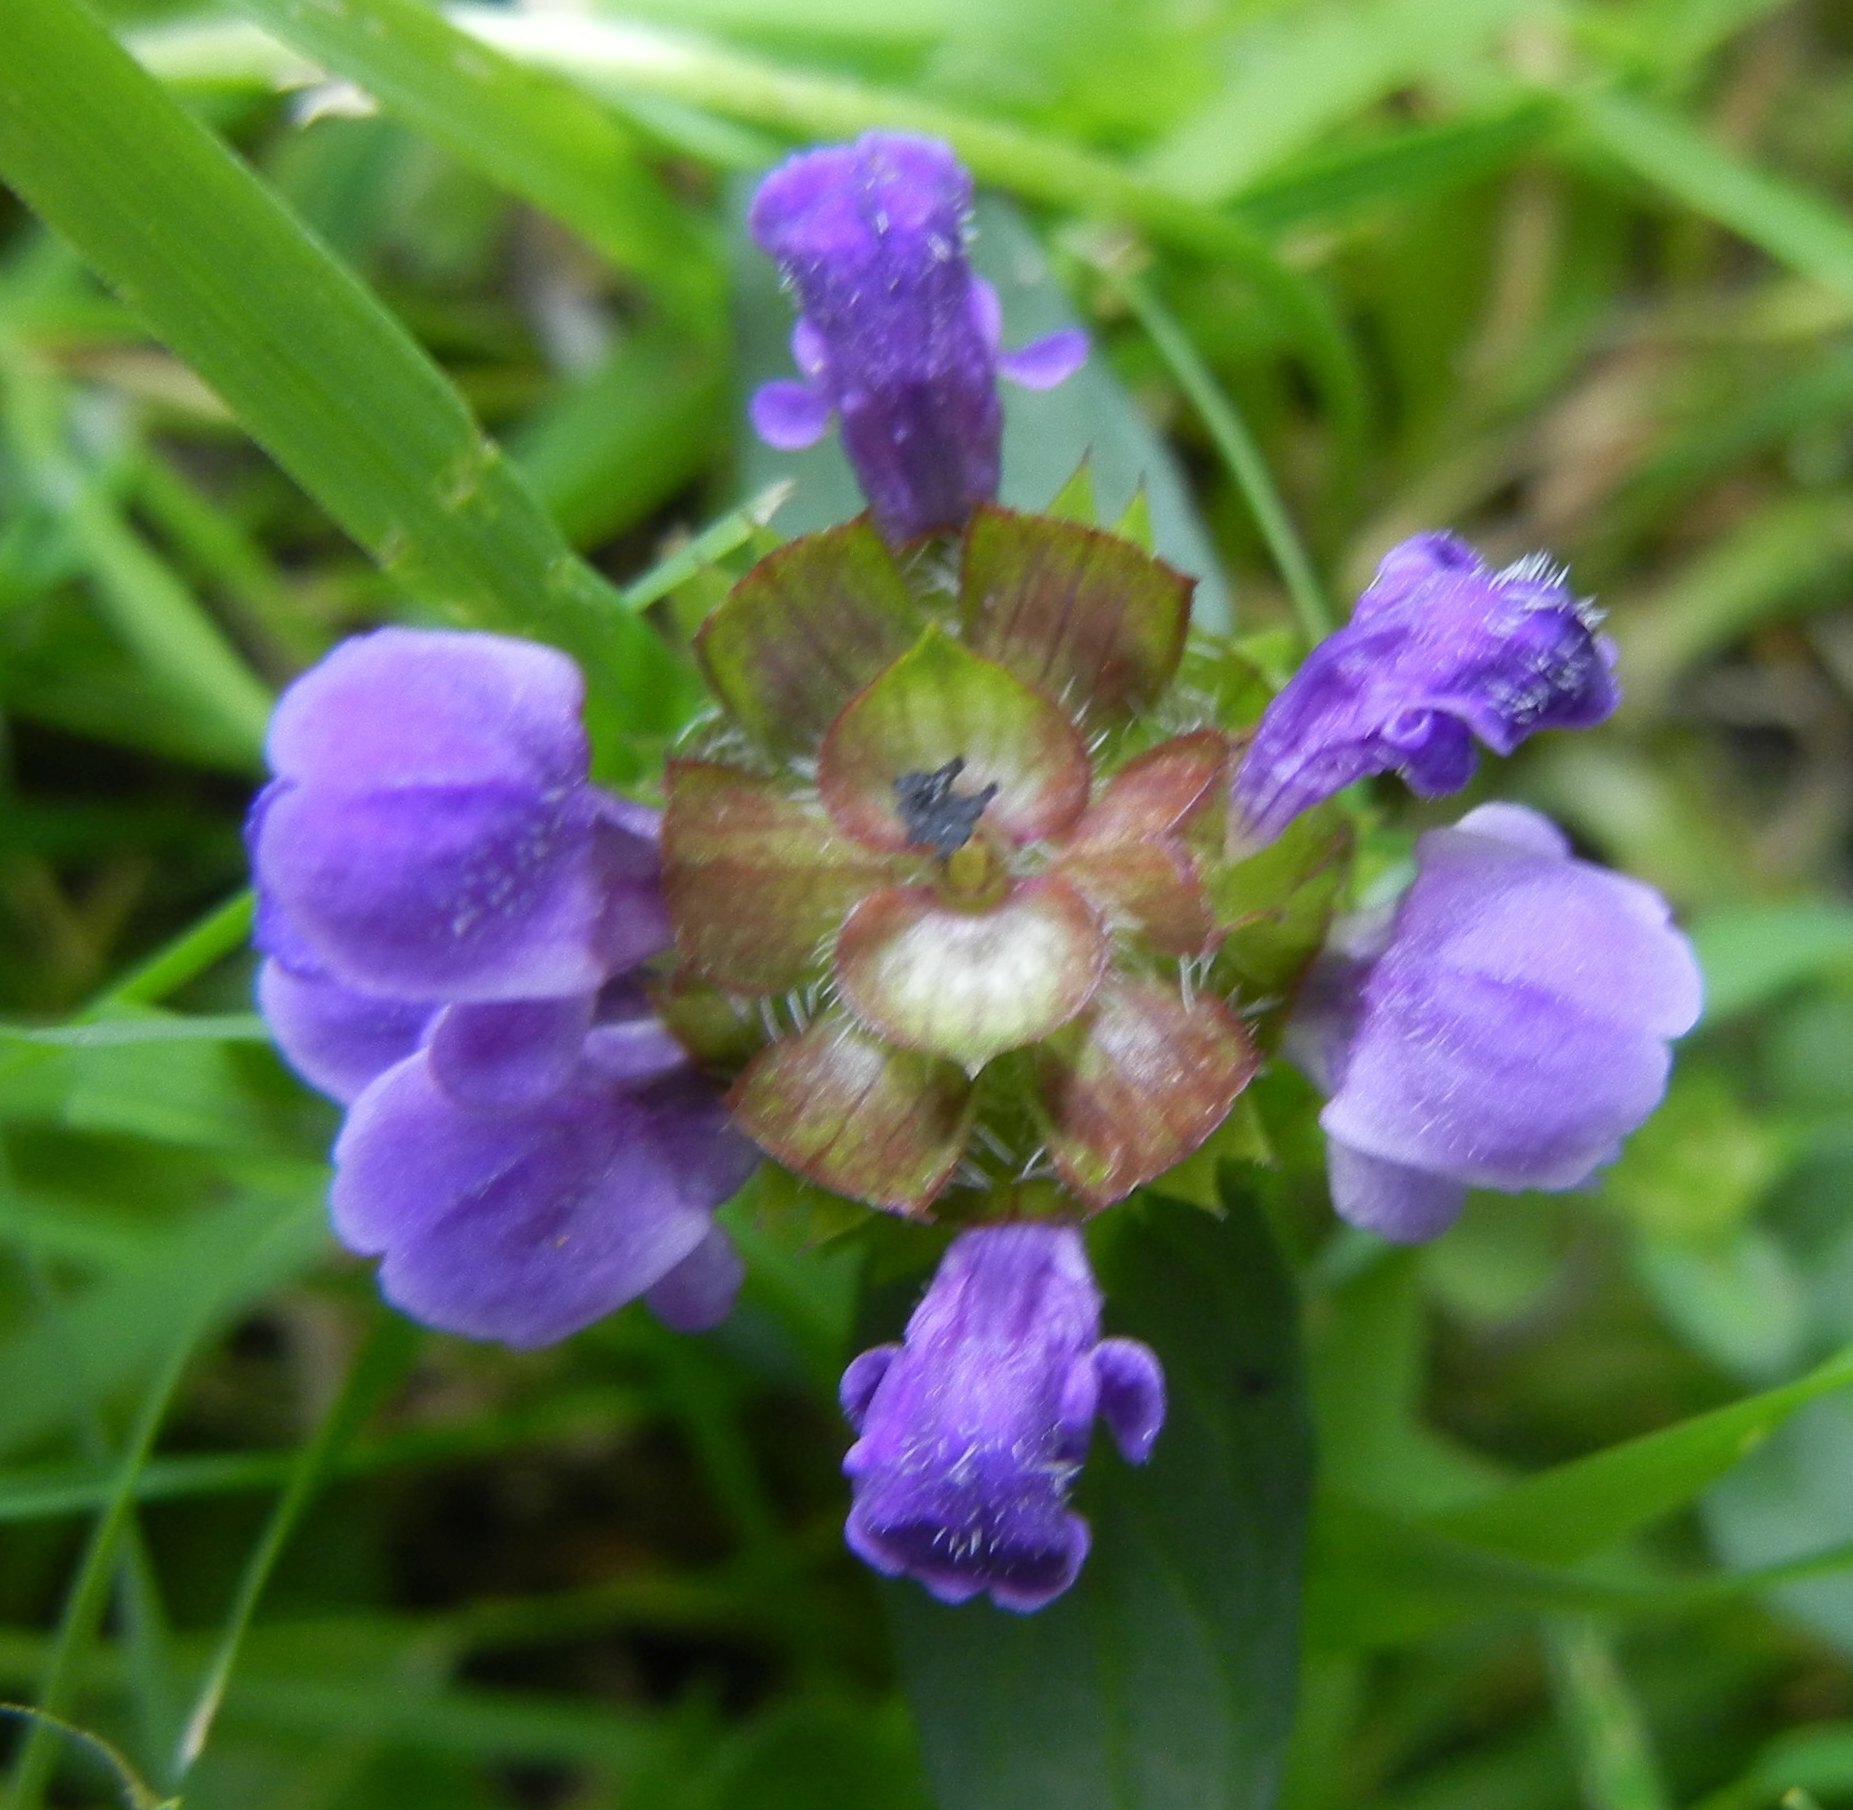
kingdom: Plantae
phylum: Tracheophyta
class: Magnoliopsida
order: Lamiales
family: Lamiaceae
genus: Prunella
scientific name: Prunella vulgaris
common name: Heal-all
